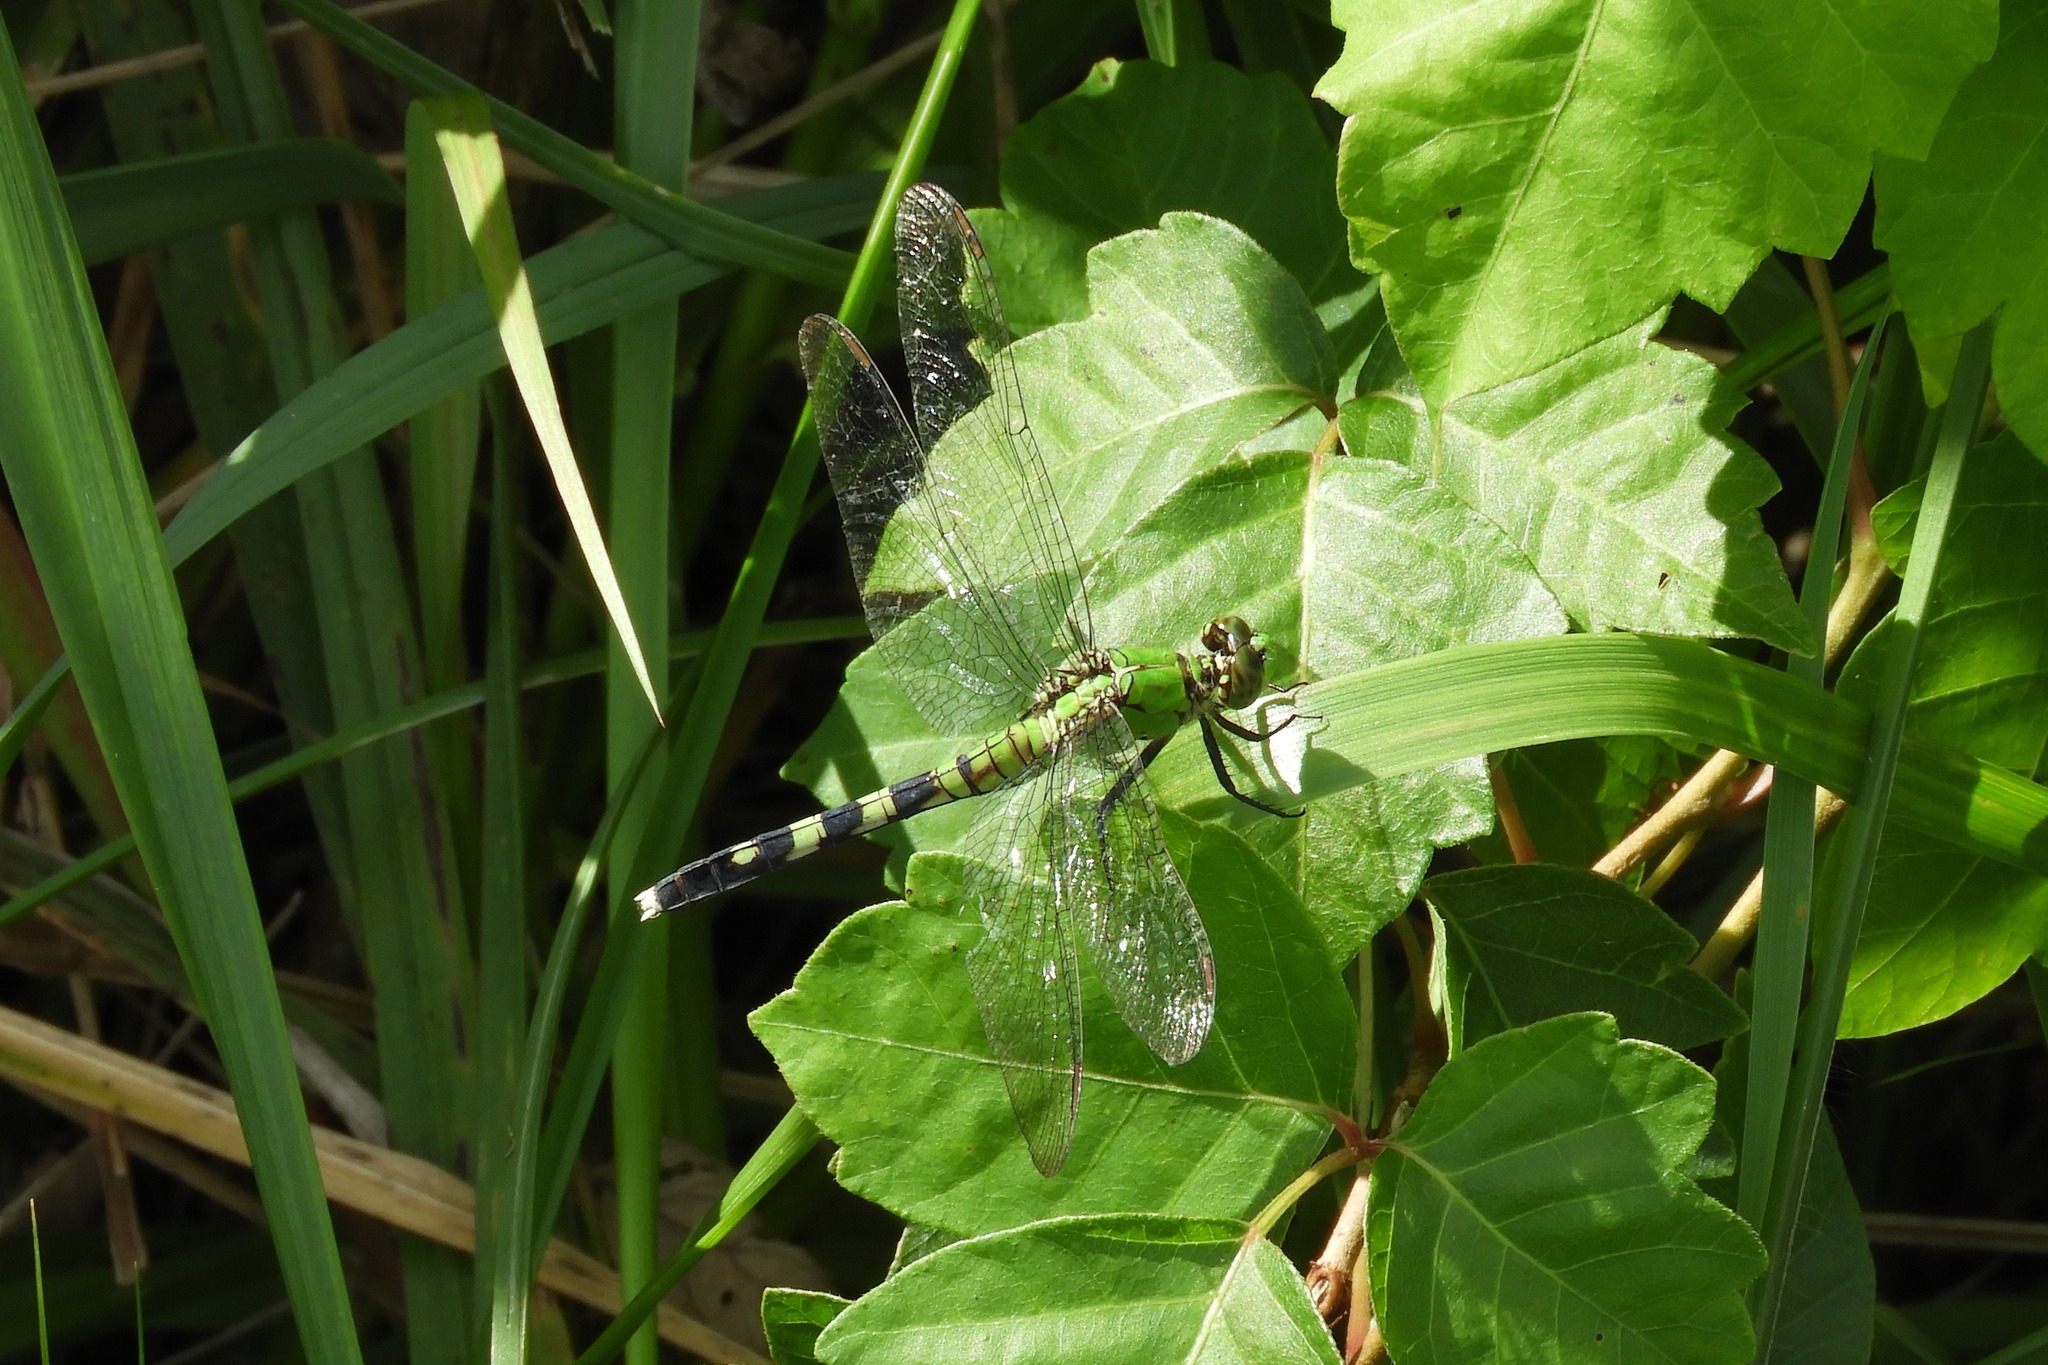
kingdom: Animalia
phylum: Arthropoda
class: Insecta
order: Odonata
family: Libellulidae
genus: Erythemis
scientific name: Erythemis simplicicollis
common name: Eastern pondhawk
